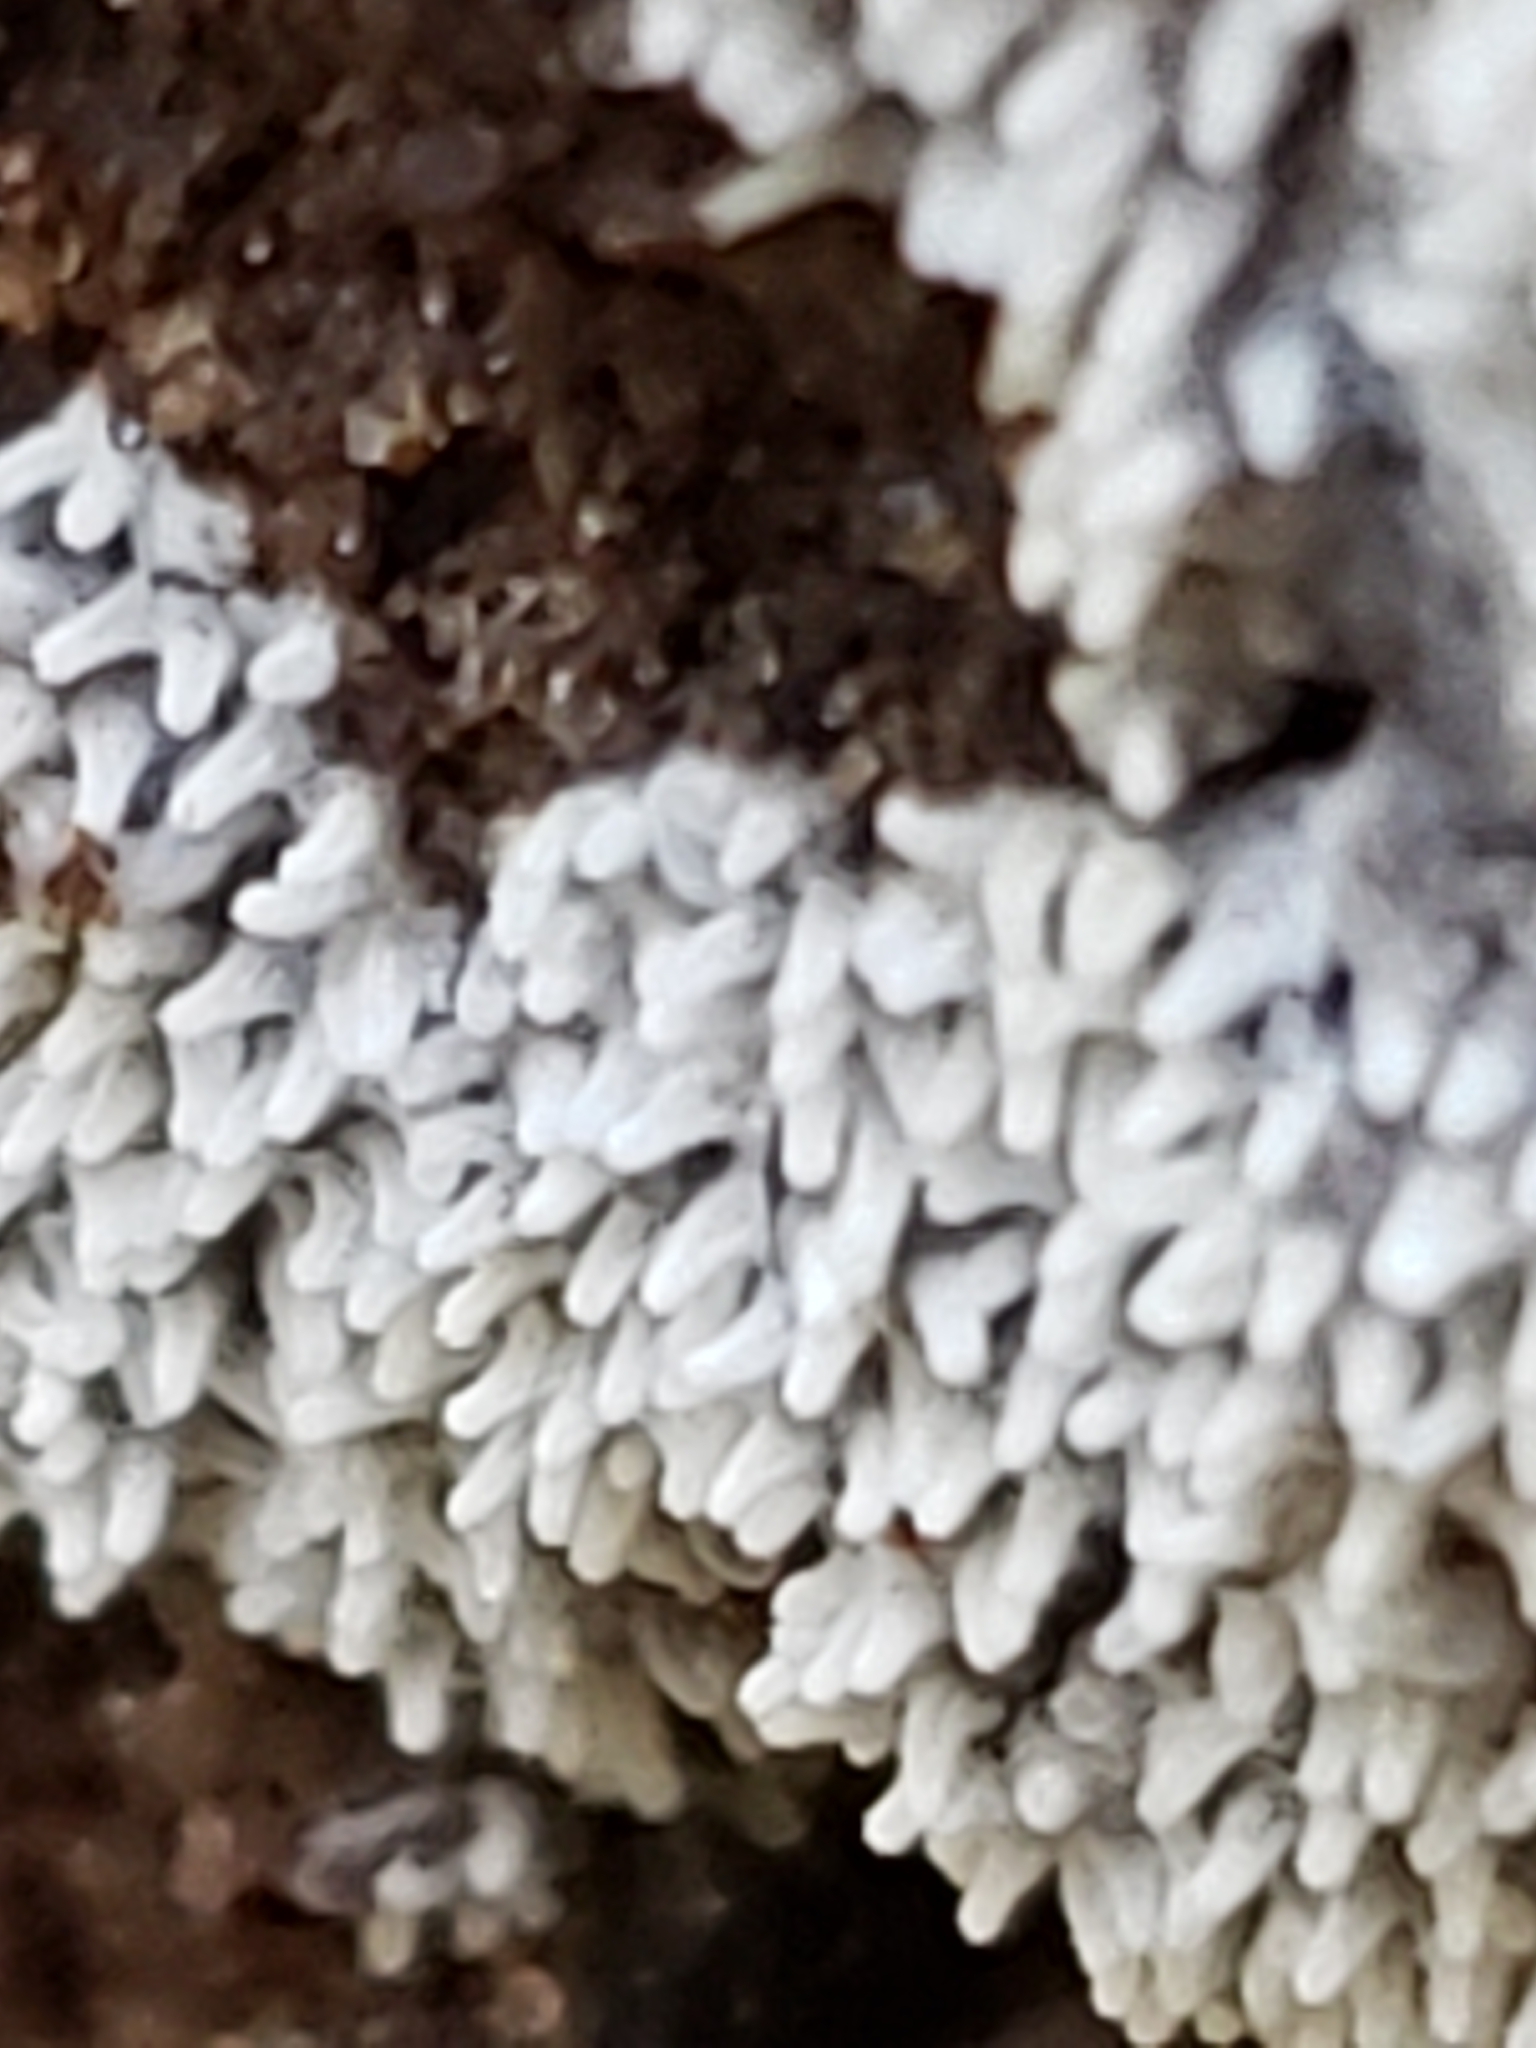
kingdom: Protozoa
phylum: Mycetozoa
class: Protosteliomycetes
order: Ceratiomyxales
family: Ceratiomyxaceae
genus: Ceratiomyxa
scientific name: Ceratiomyxa fruticulosa
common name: Honeycomb coral slime mold
